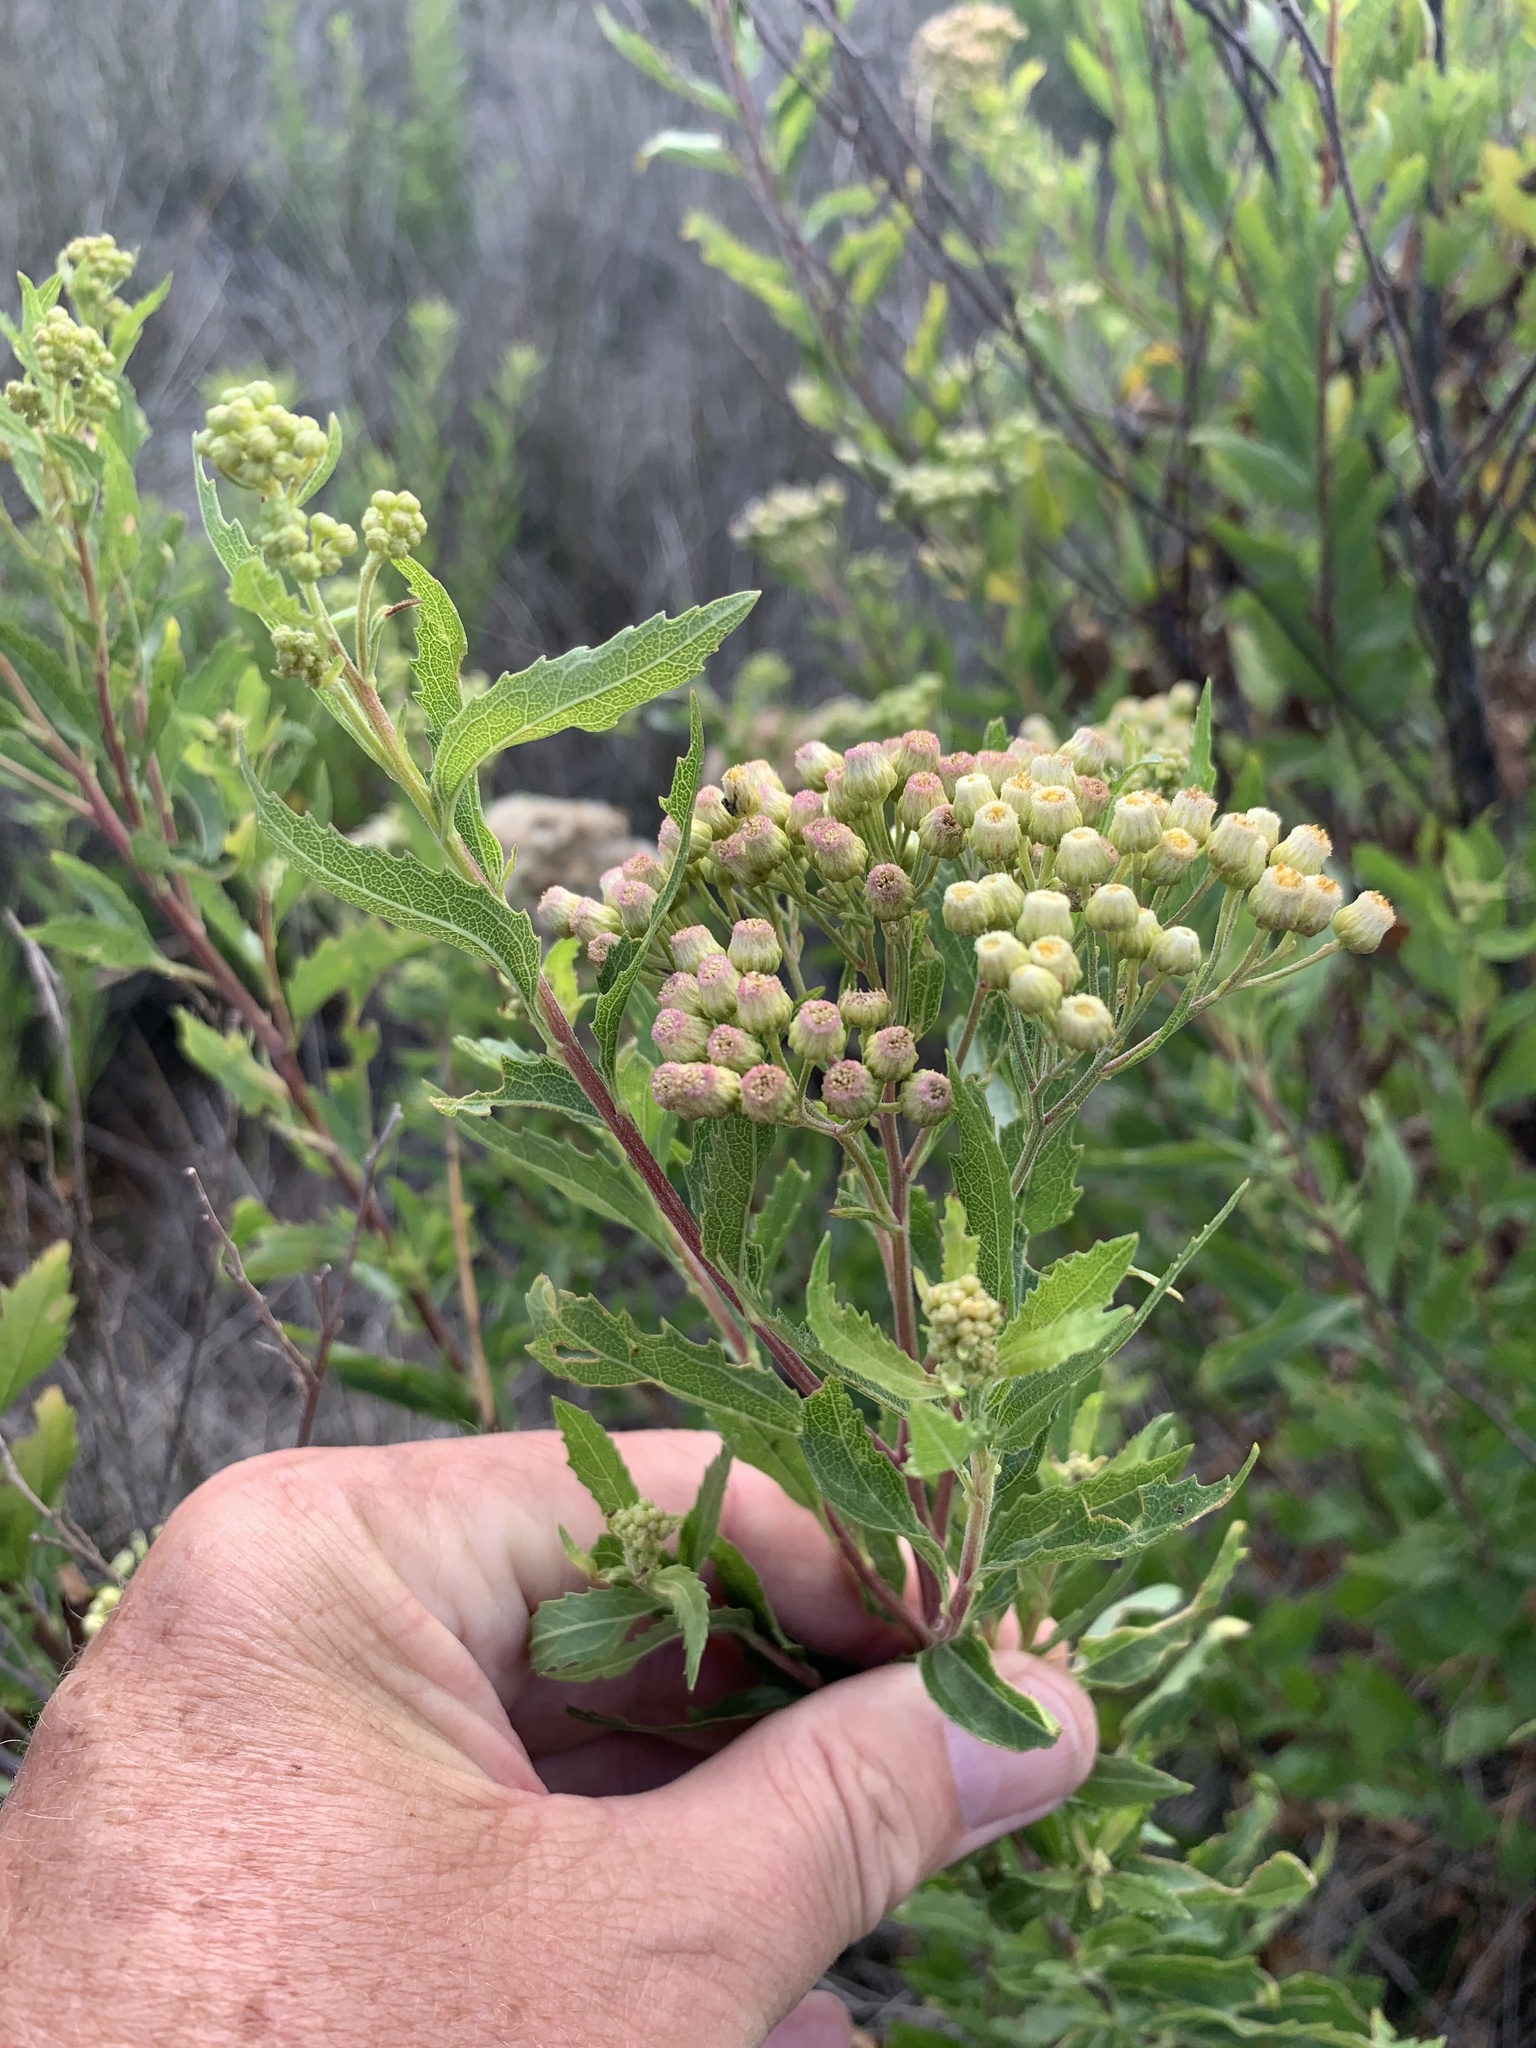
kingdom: Plantae
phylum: Tracheophyta
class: Magnoliopsida
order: Asterales
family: Asteraceae
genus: Nidorella
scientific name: Nidorella ivifolia
